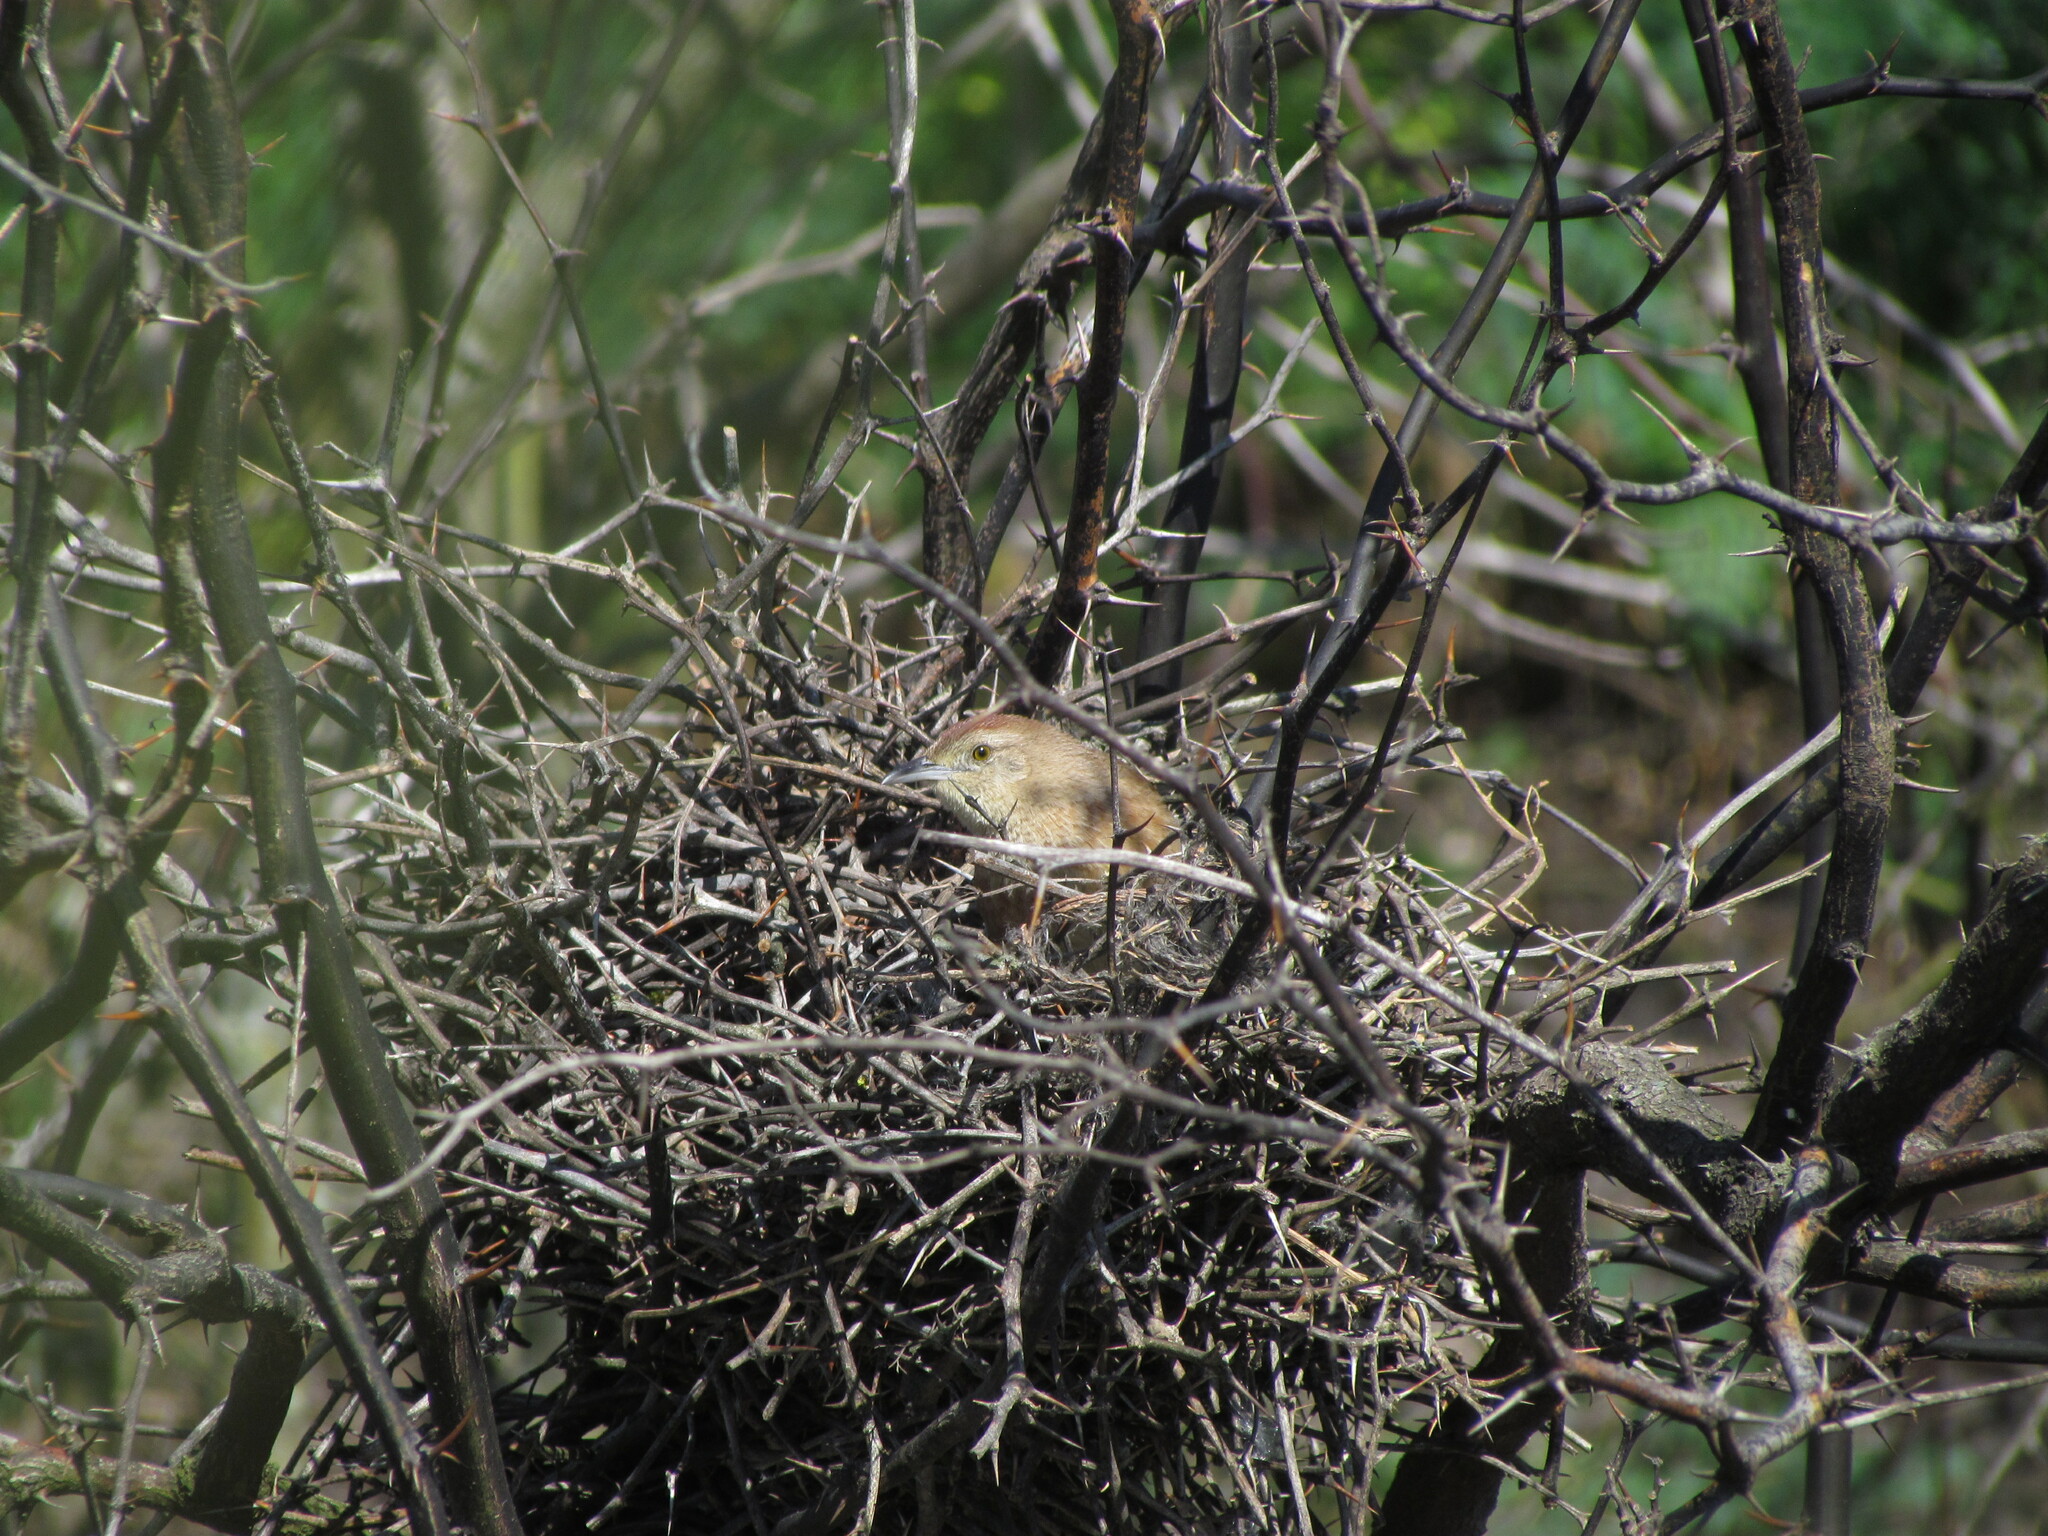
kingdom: Animalia
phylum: Chordata
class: Aves
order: Passeriformes
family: Furnariidae
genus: Phacellodomus
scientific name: Phacellodomus striaticollis
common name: Freckle-breasted thornbird
